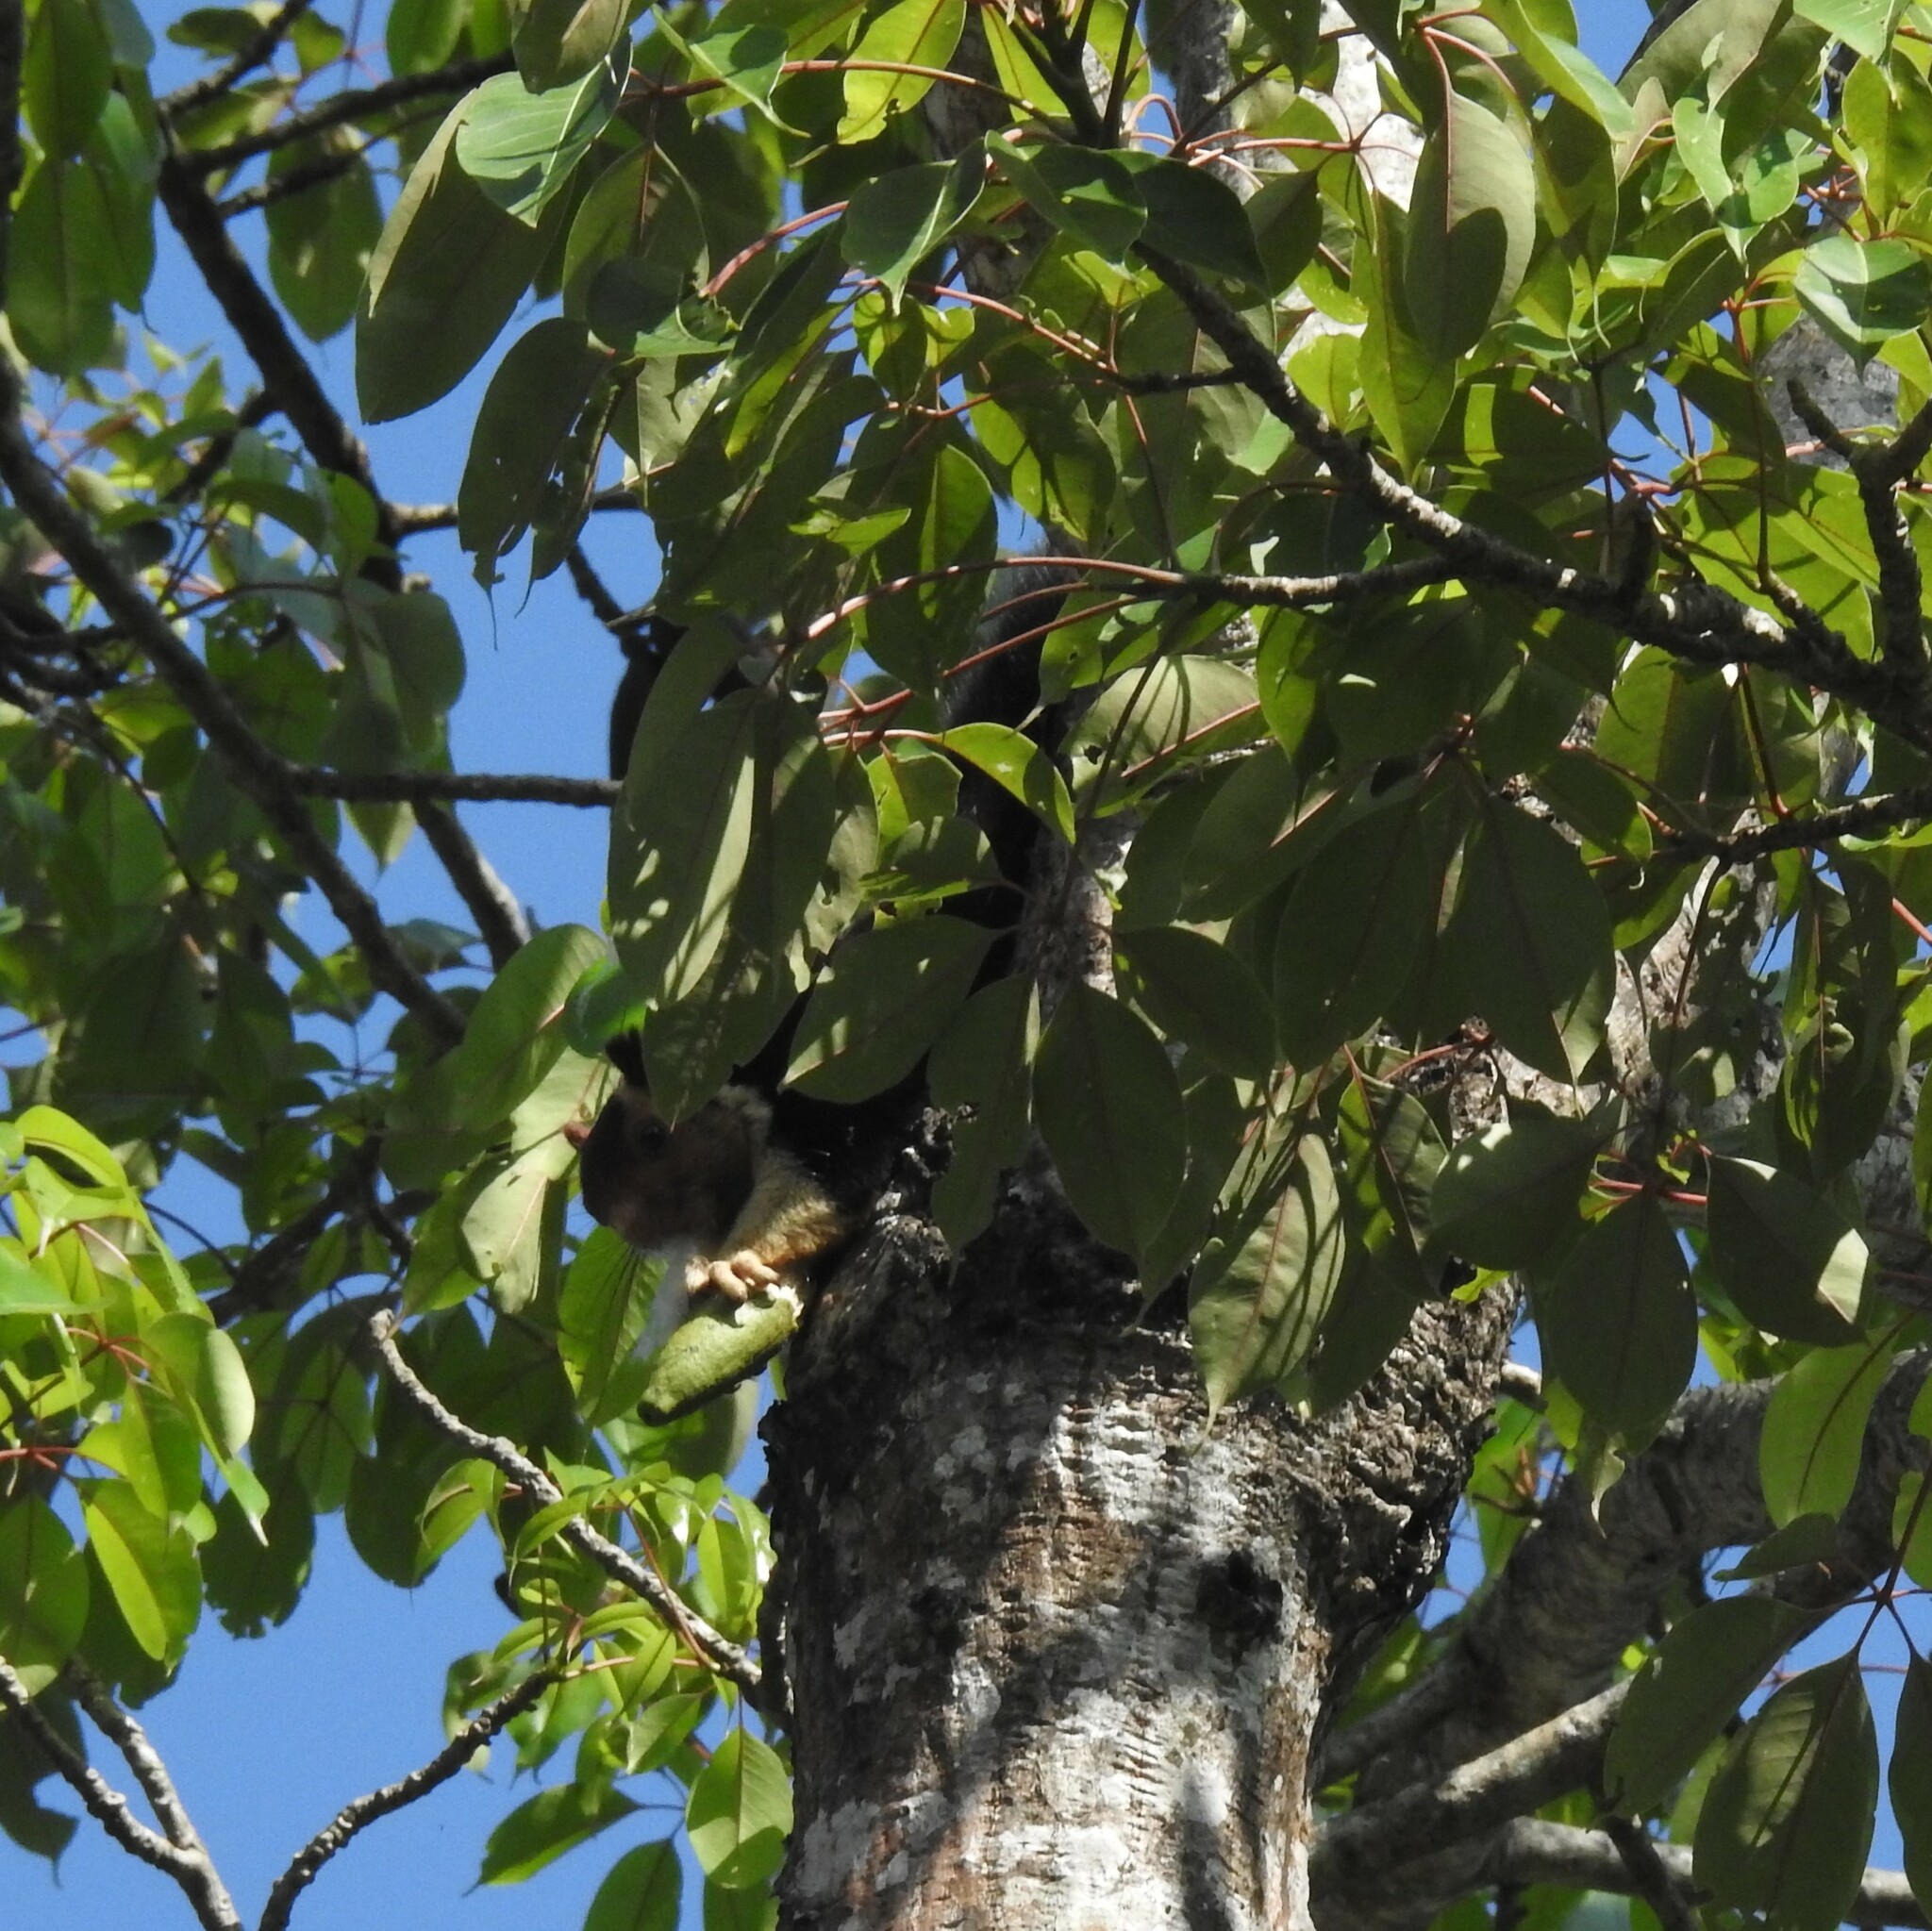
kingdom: Animalia
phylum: Chordata
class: Mammalia
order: Rodentia
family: Sciuridae
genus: Ratufa
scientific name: Ratufa indica
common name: Indian giant squirrel
